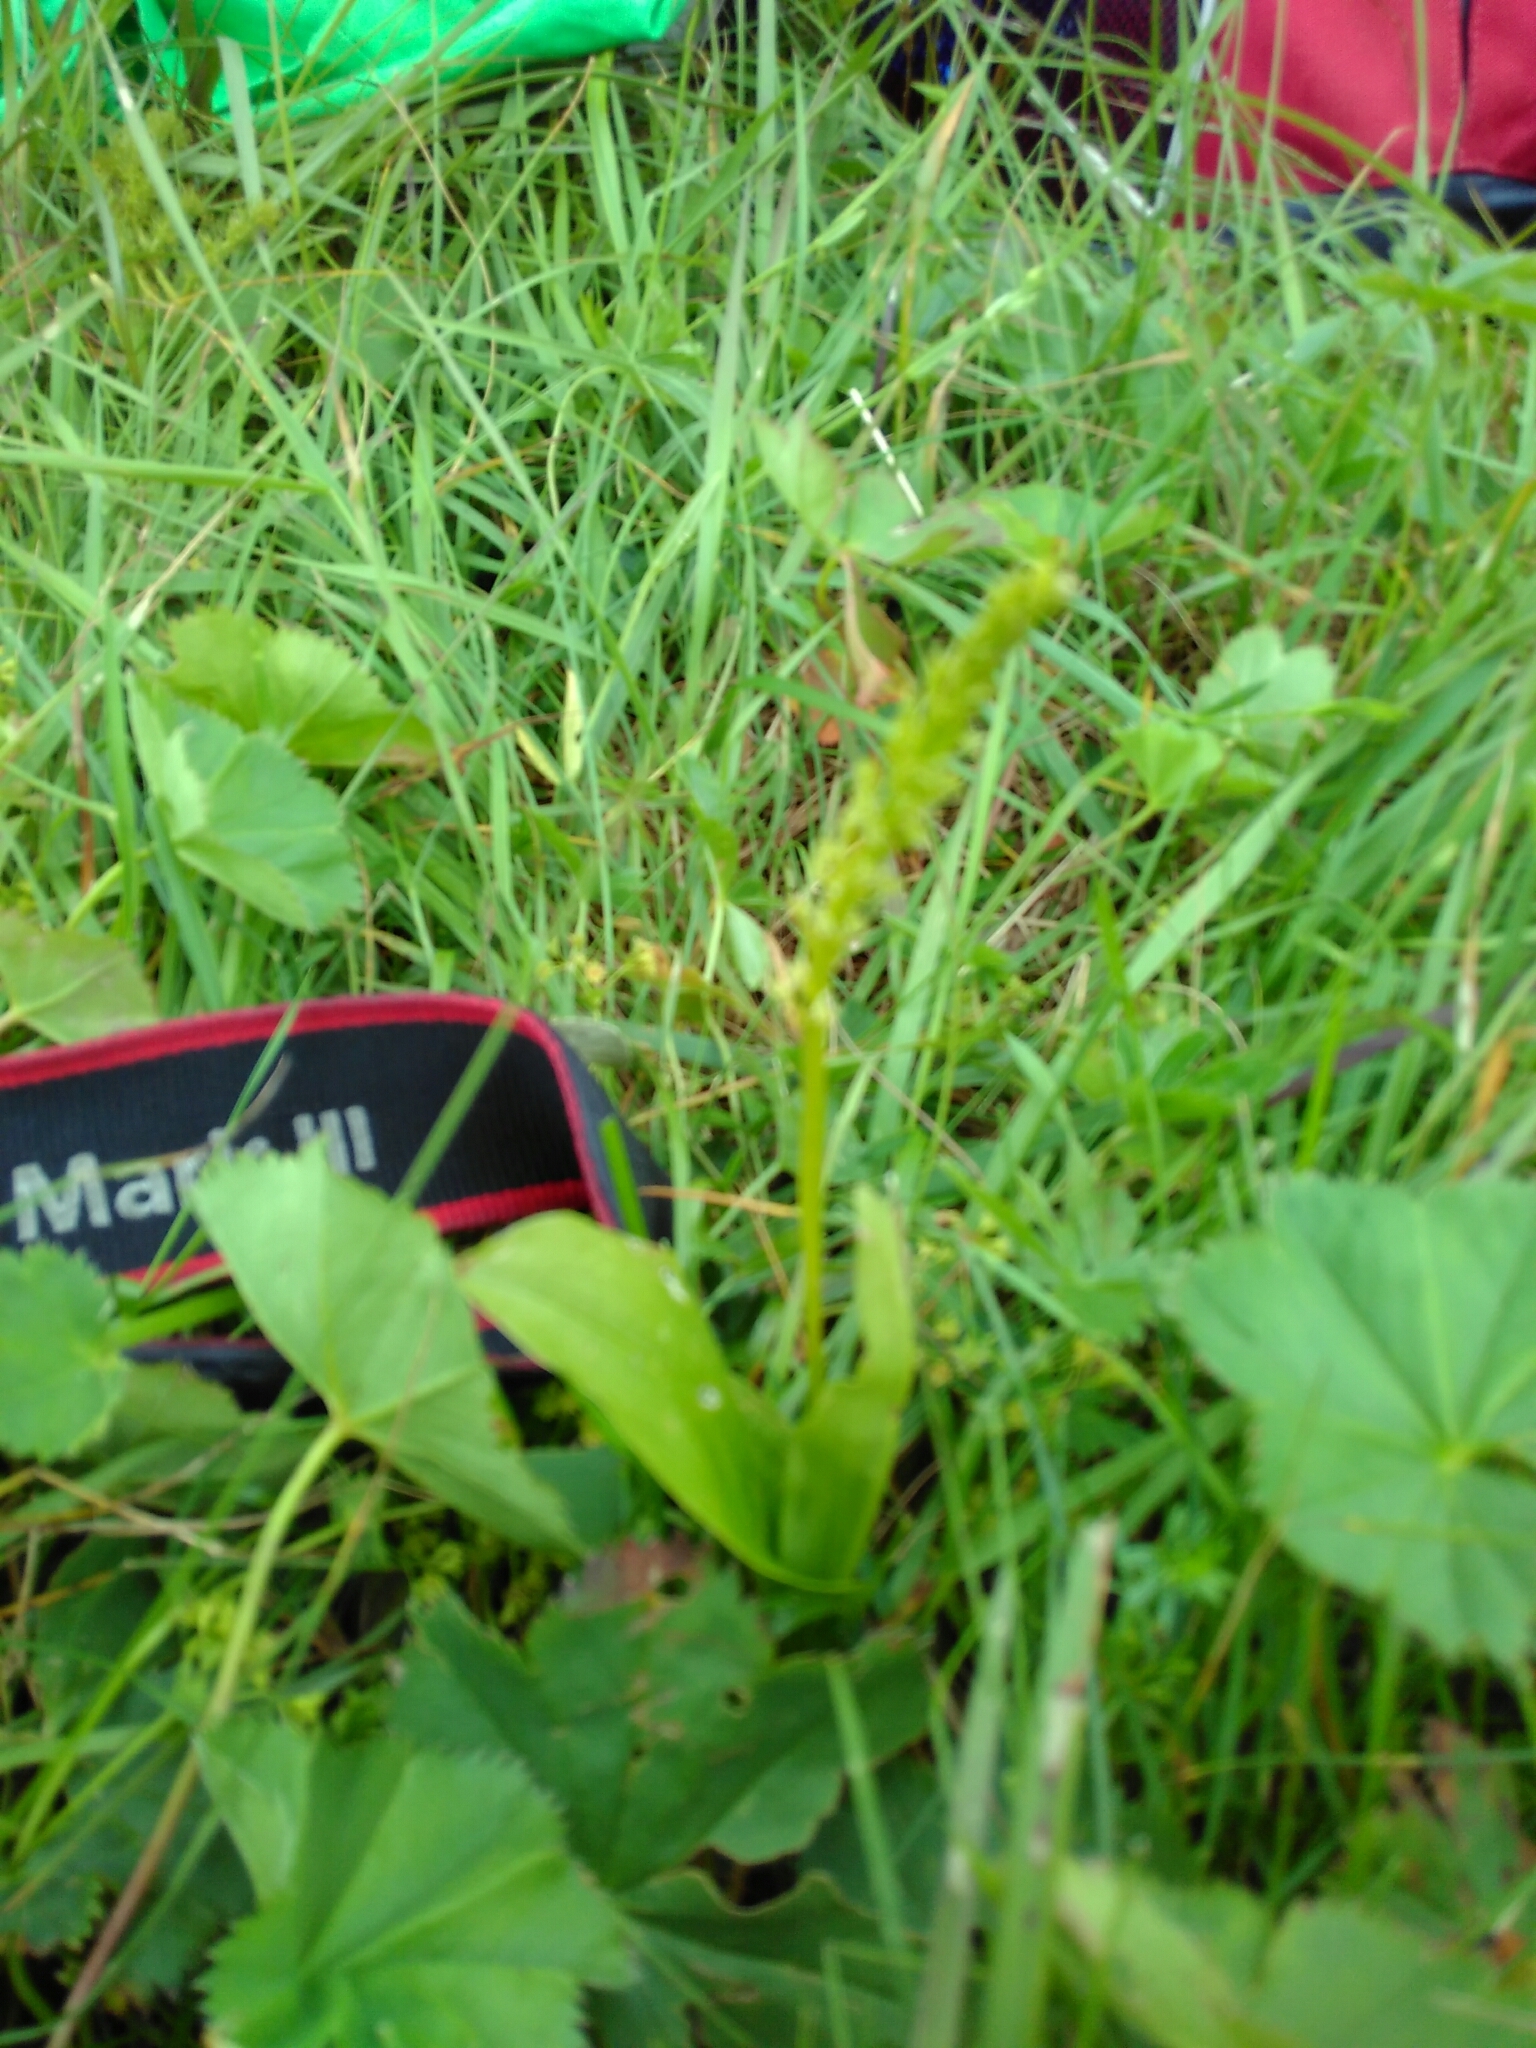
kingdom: Plantae
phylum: Tracheophyta
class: Liliopsida
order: Asparagales
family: Orchidaceae
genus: Herminium
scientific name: Herminium monorchis
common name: Musk orchid
